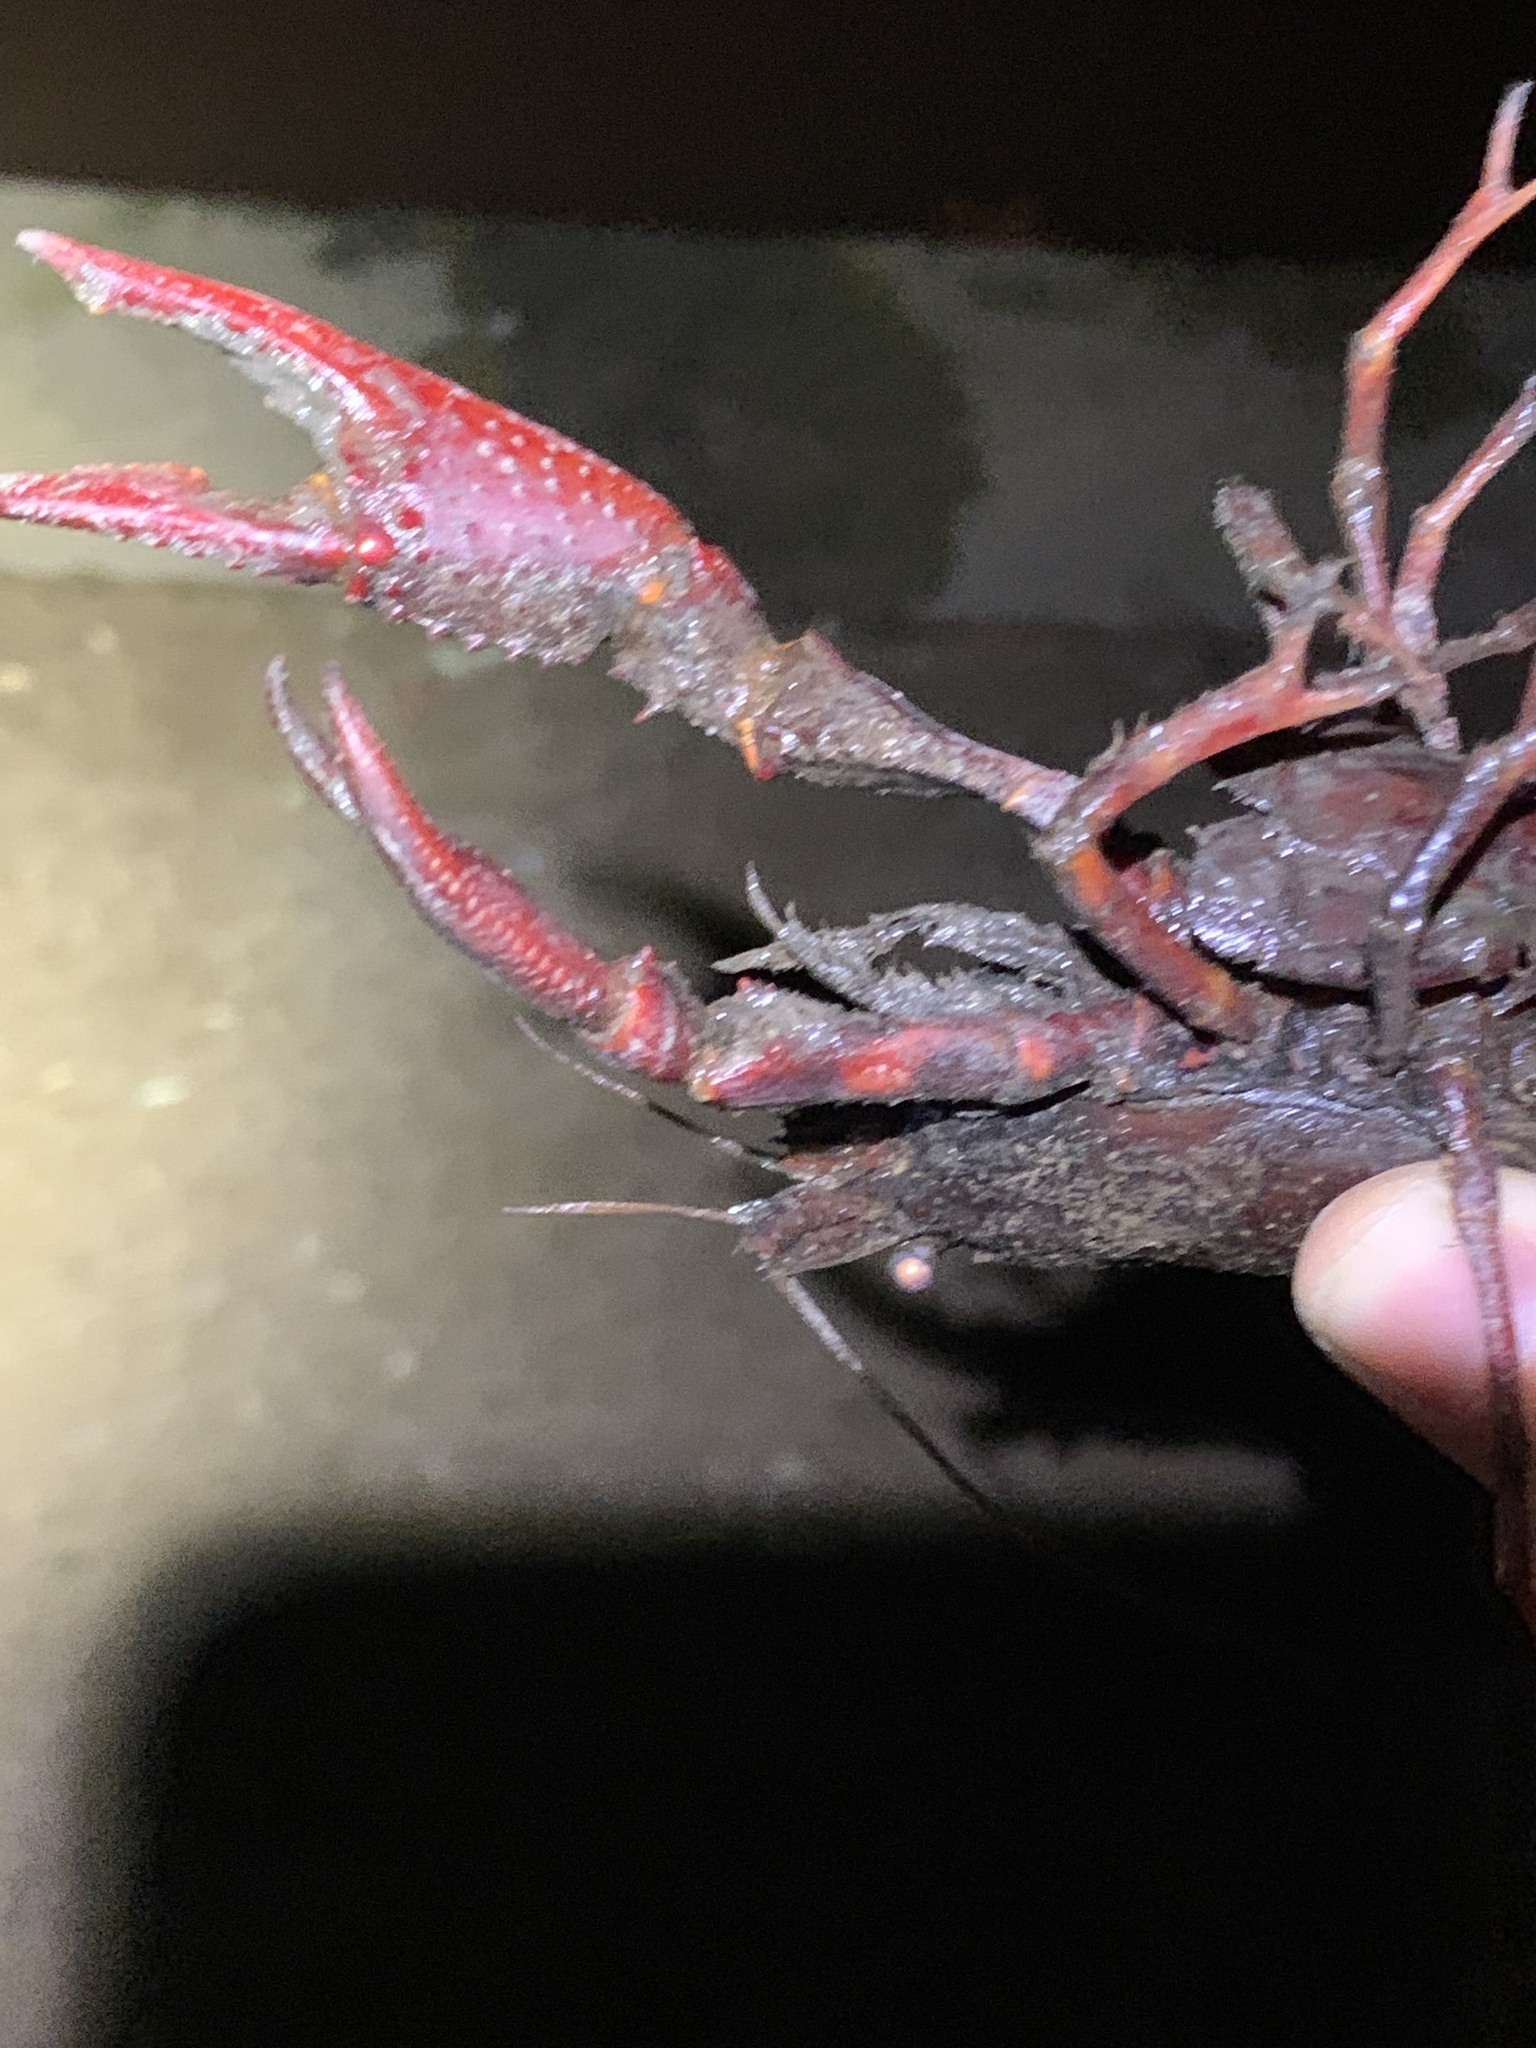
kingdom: Animalia
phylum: Arthropoda
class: Malacostraca
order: Decapoda
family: Cambaridae
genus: Procambarus
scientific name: Procambarus clarkii
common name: Red swamp crayfish
